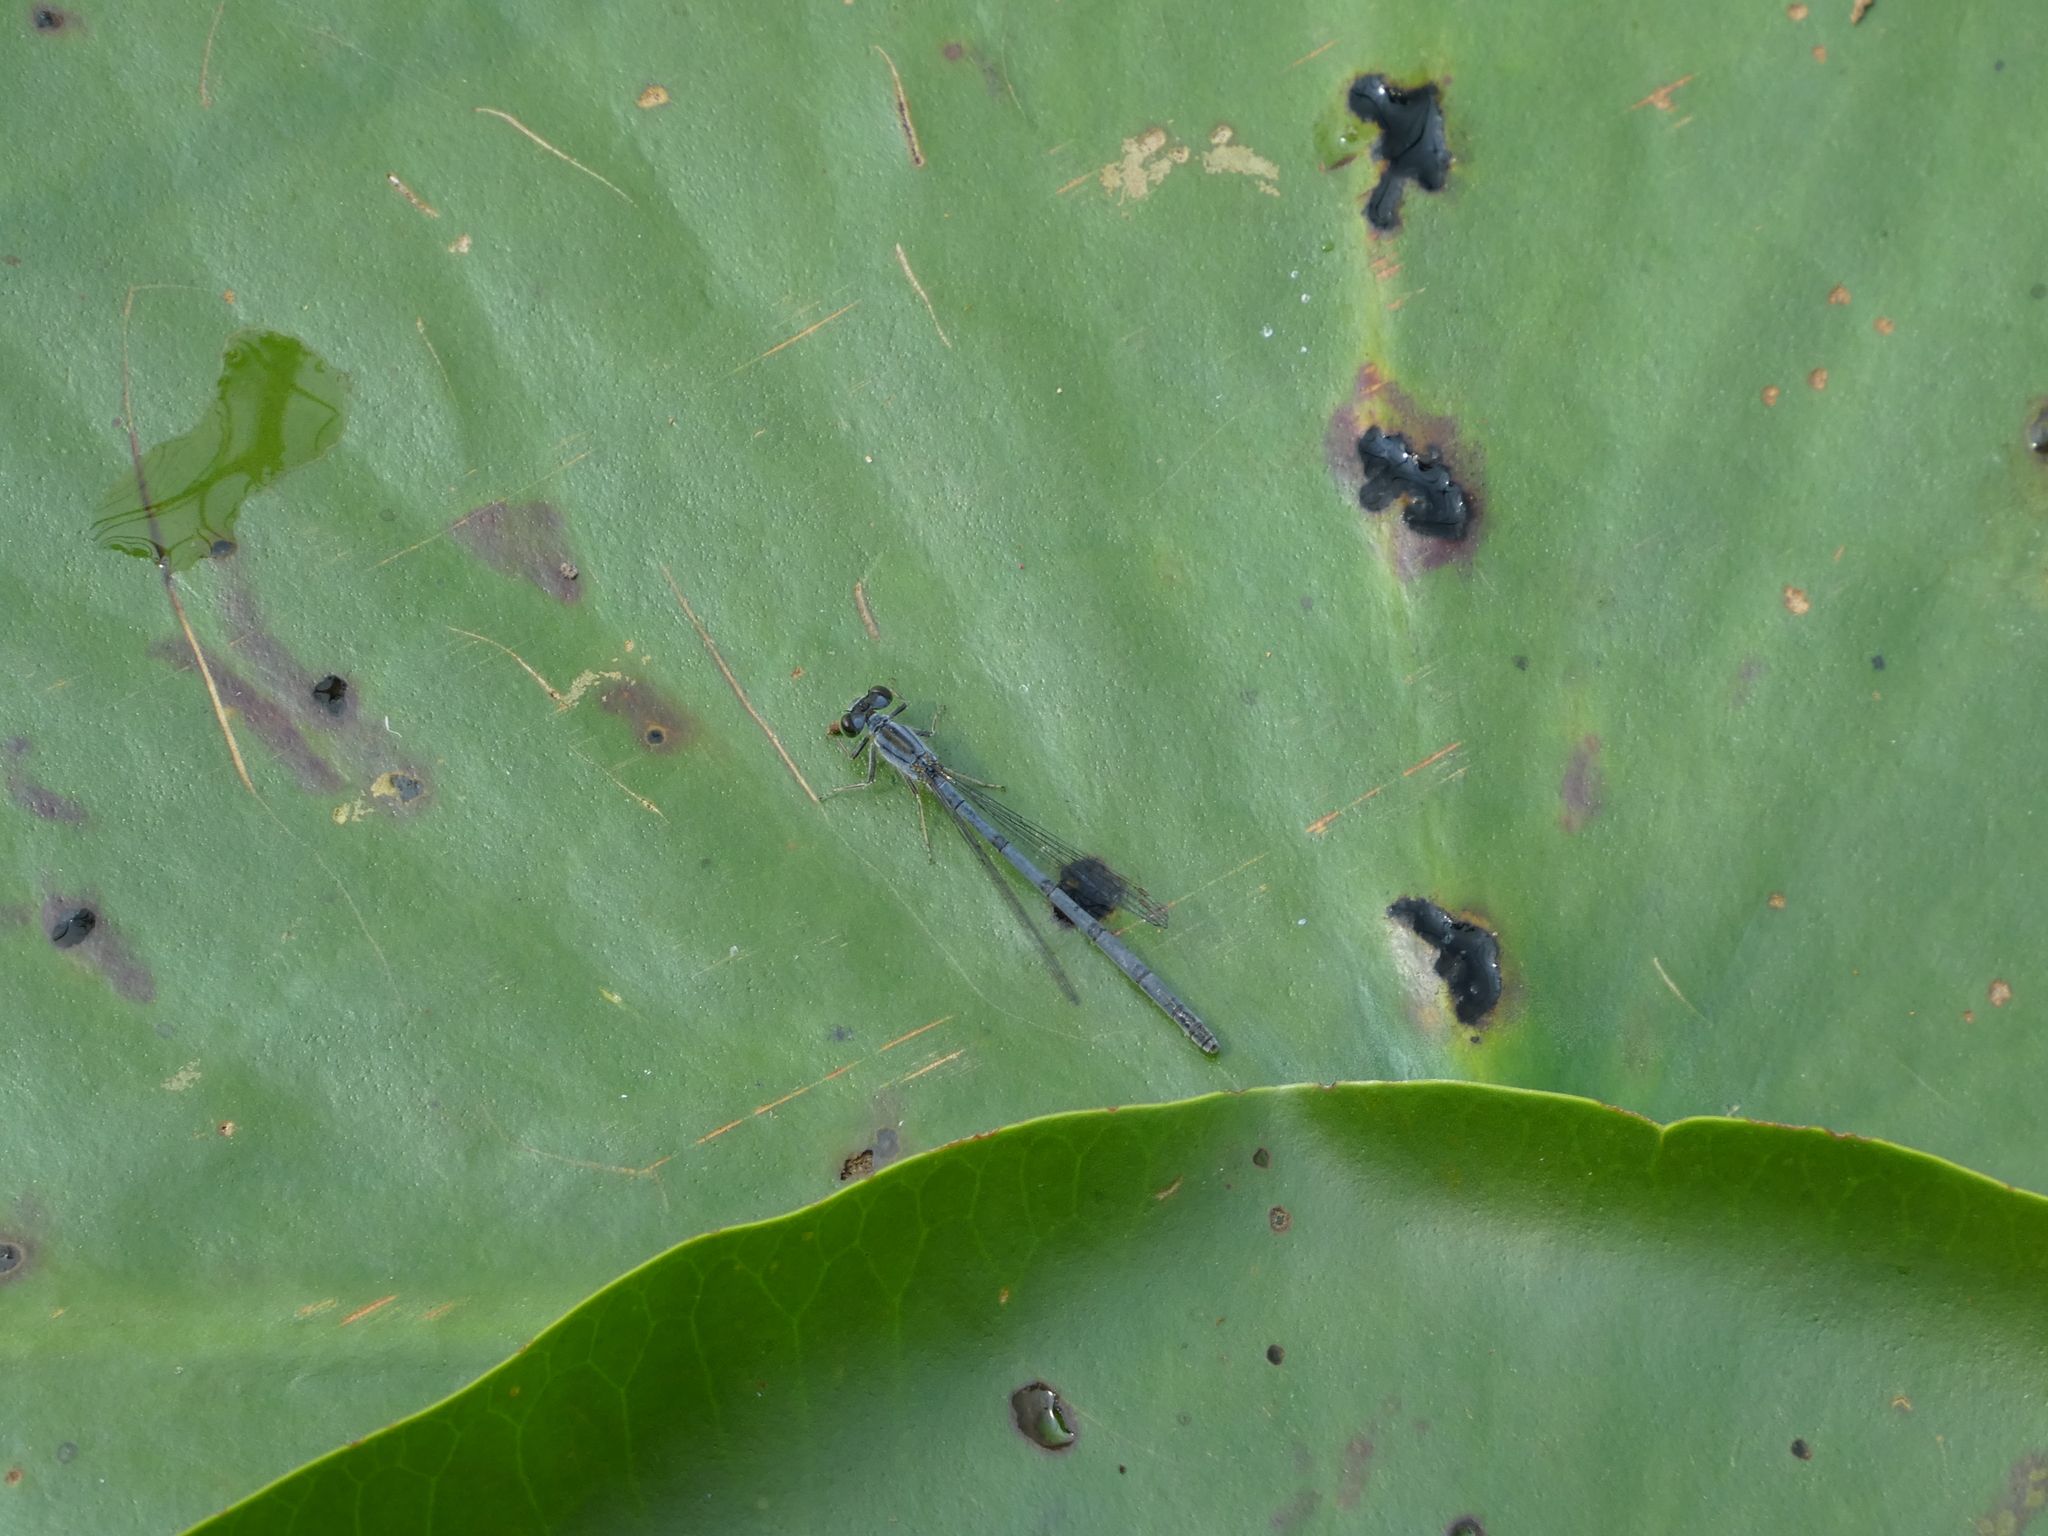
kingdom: Animalia
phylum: Arthropoda
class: Insecta
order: Odonata
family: Coenagrionidae
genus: Ischnura
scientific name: Ischnura verticalis
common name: Eastern forktail
